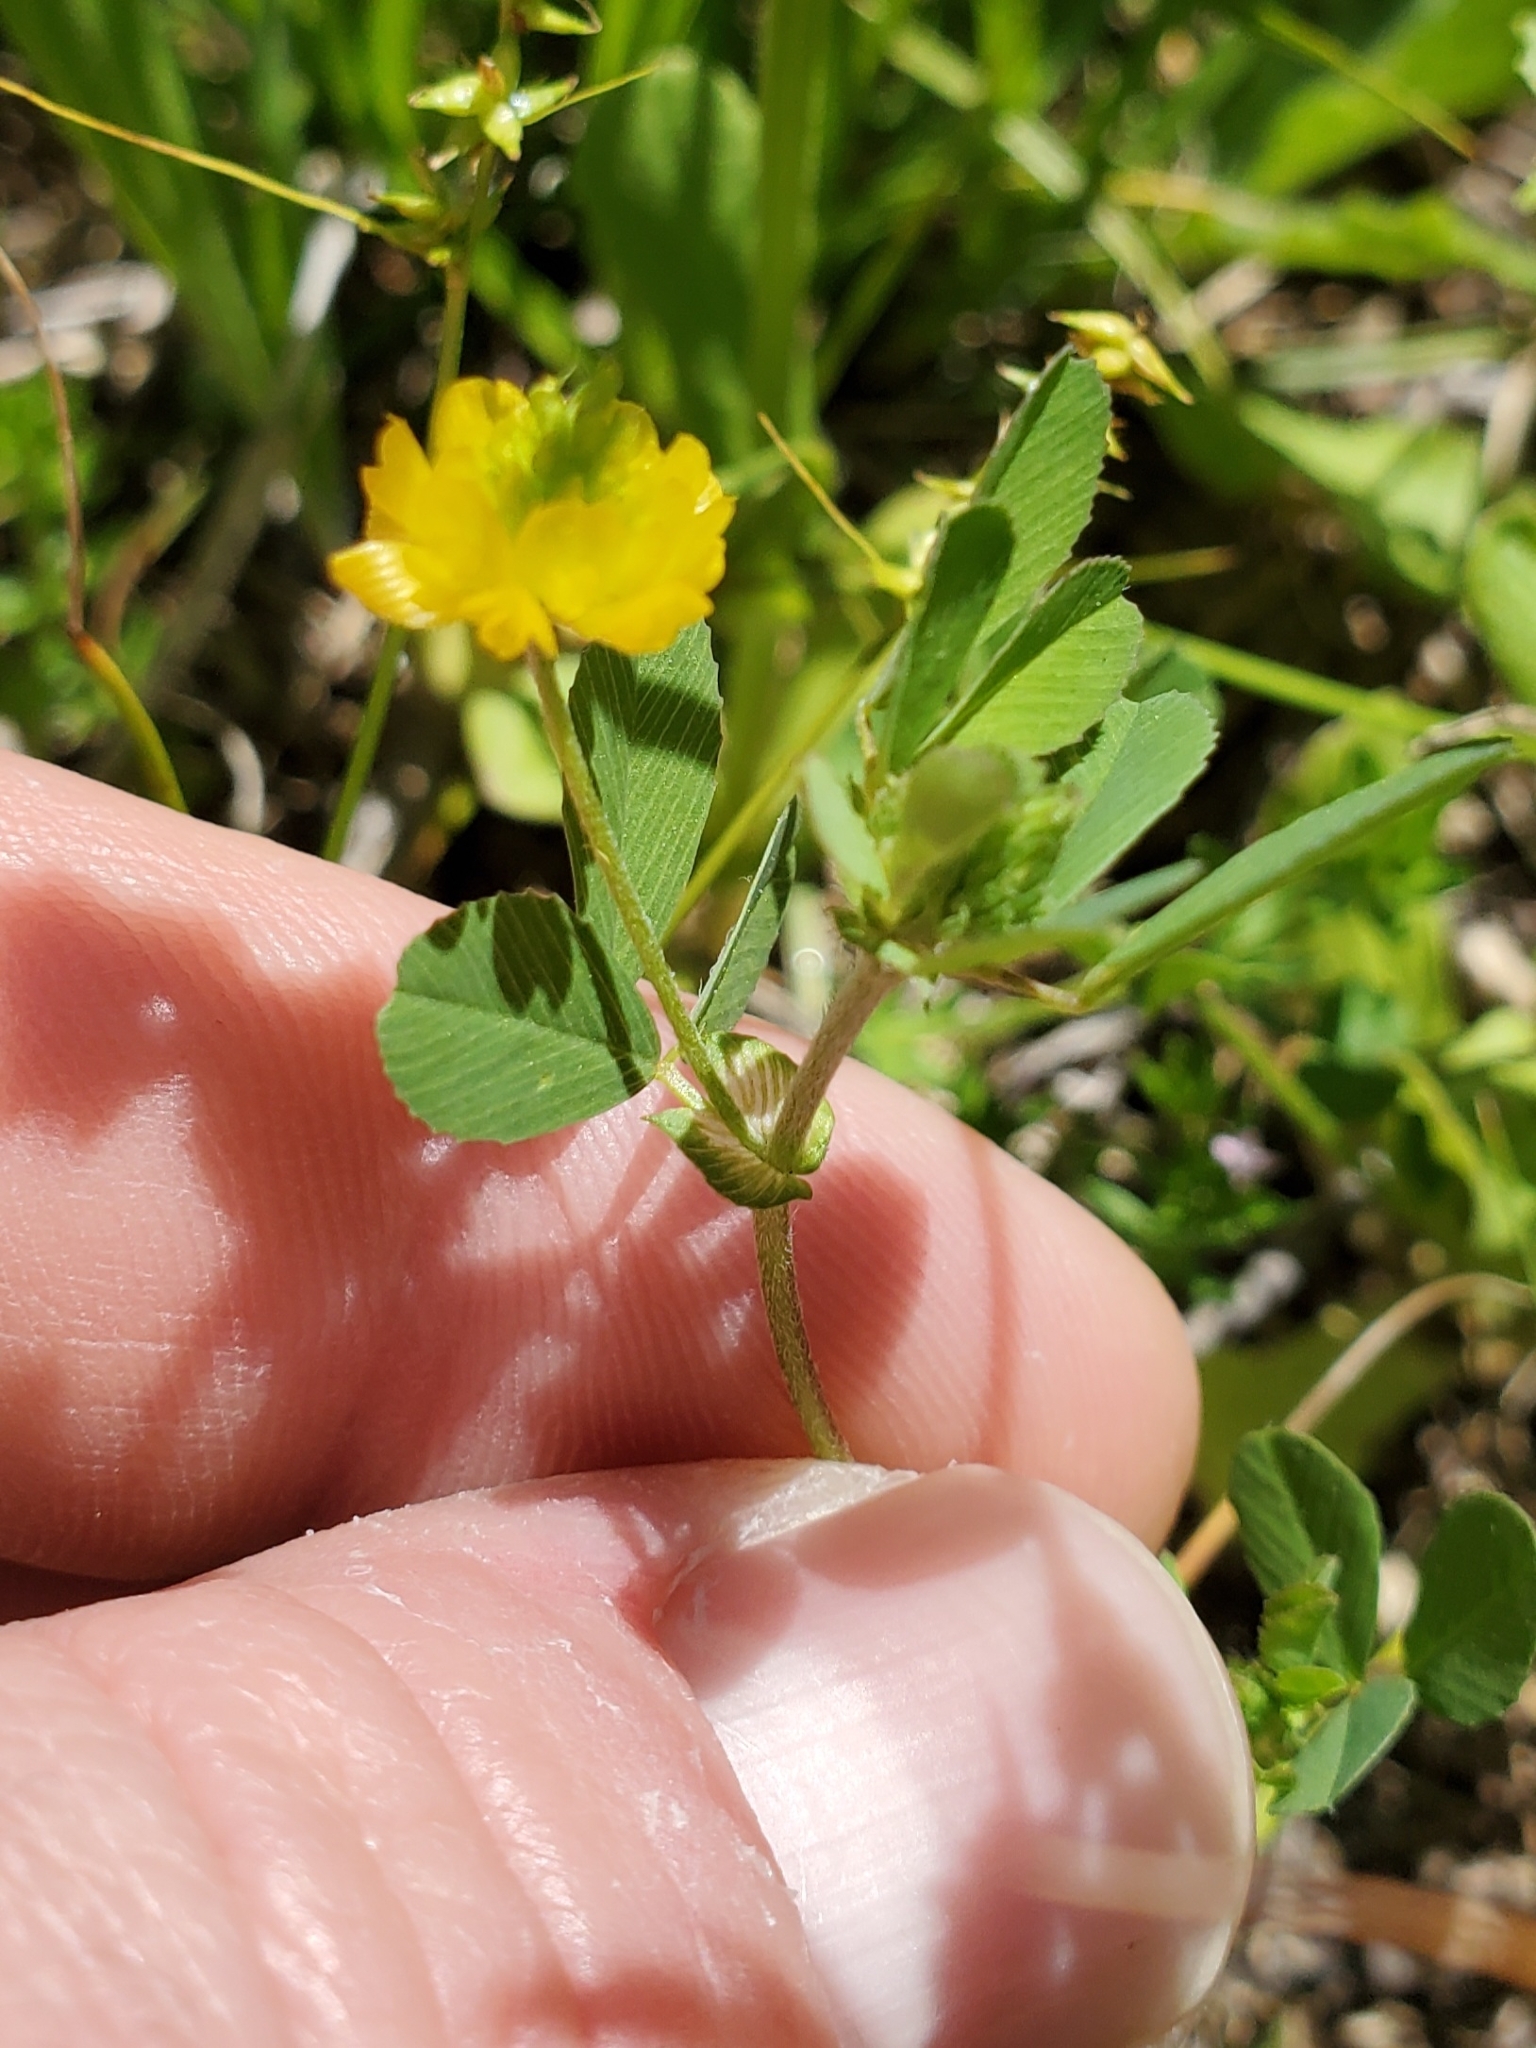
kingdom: Plantae
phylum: Tracheophyta
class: Magnoliopsida
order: Fabales
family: Fabaceae
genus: Trifolium
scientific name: Trifolium campestre
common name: Field clover
